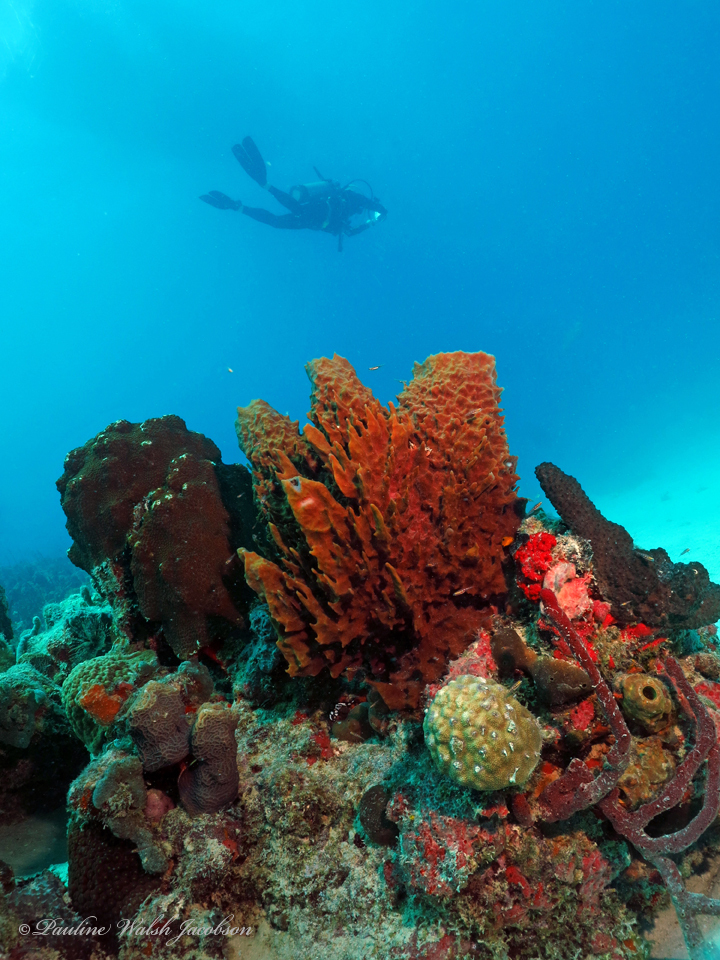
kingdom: Animalia
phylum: Porifera
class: Demospongiae
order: Haplosclerida
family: Petrosiidae
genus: Xestospongia
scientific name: Xestospongia muta
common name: Giant barrel sponge
